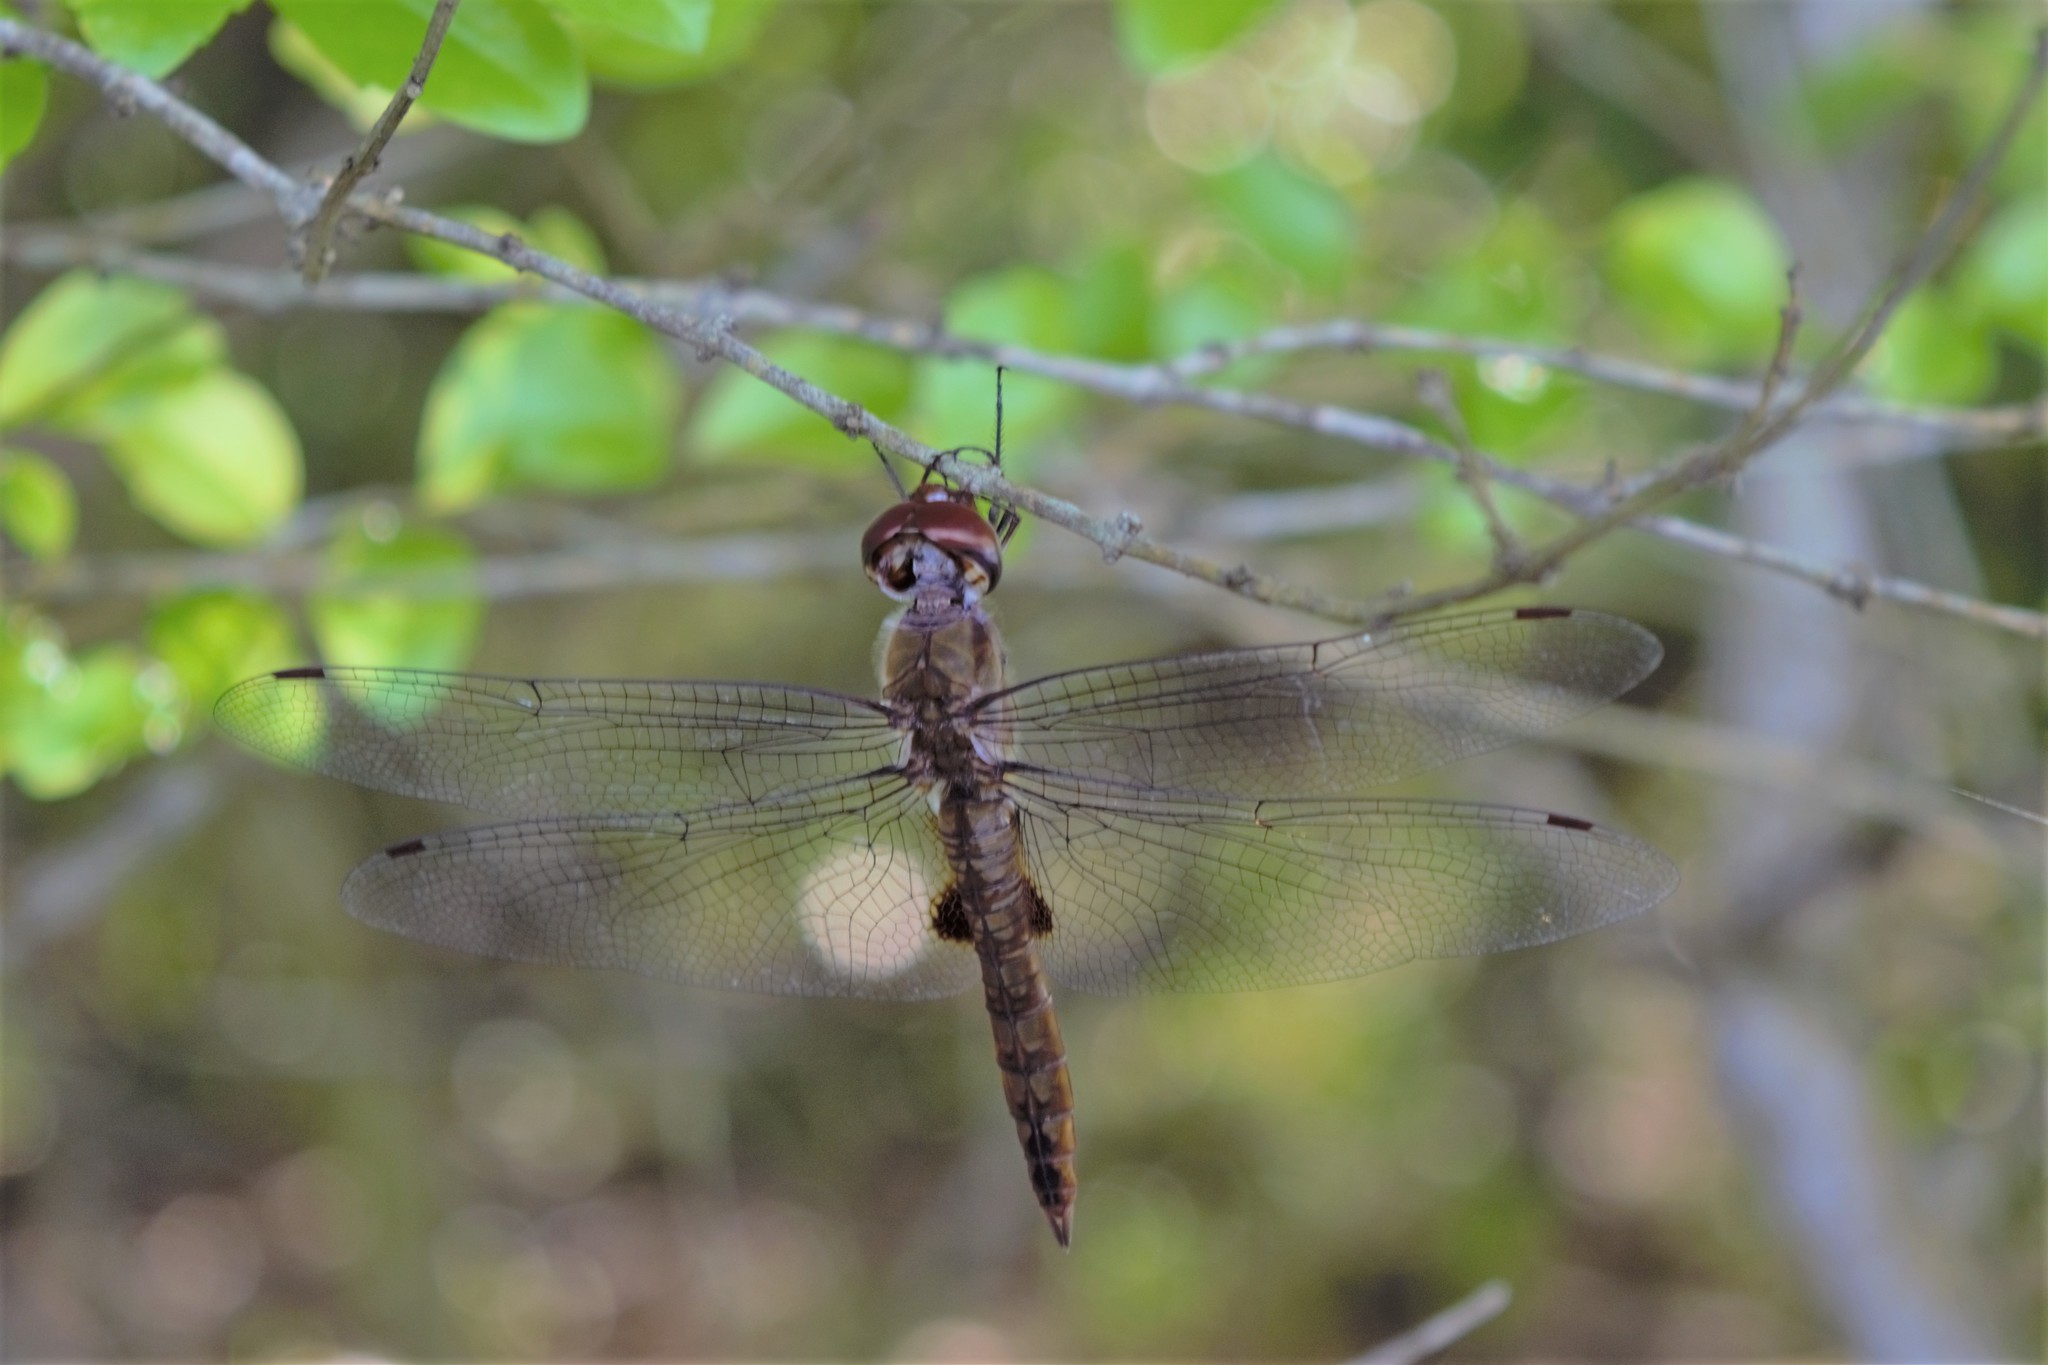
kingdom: Animalia
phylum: Arthropoda
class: Insecta
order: Odonata
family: Libellulidae
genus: Pantala
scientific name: Pantala hymenaea
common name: Spot-winged glider
